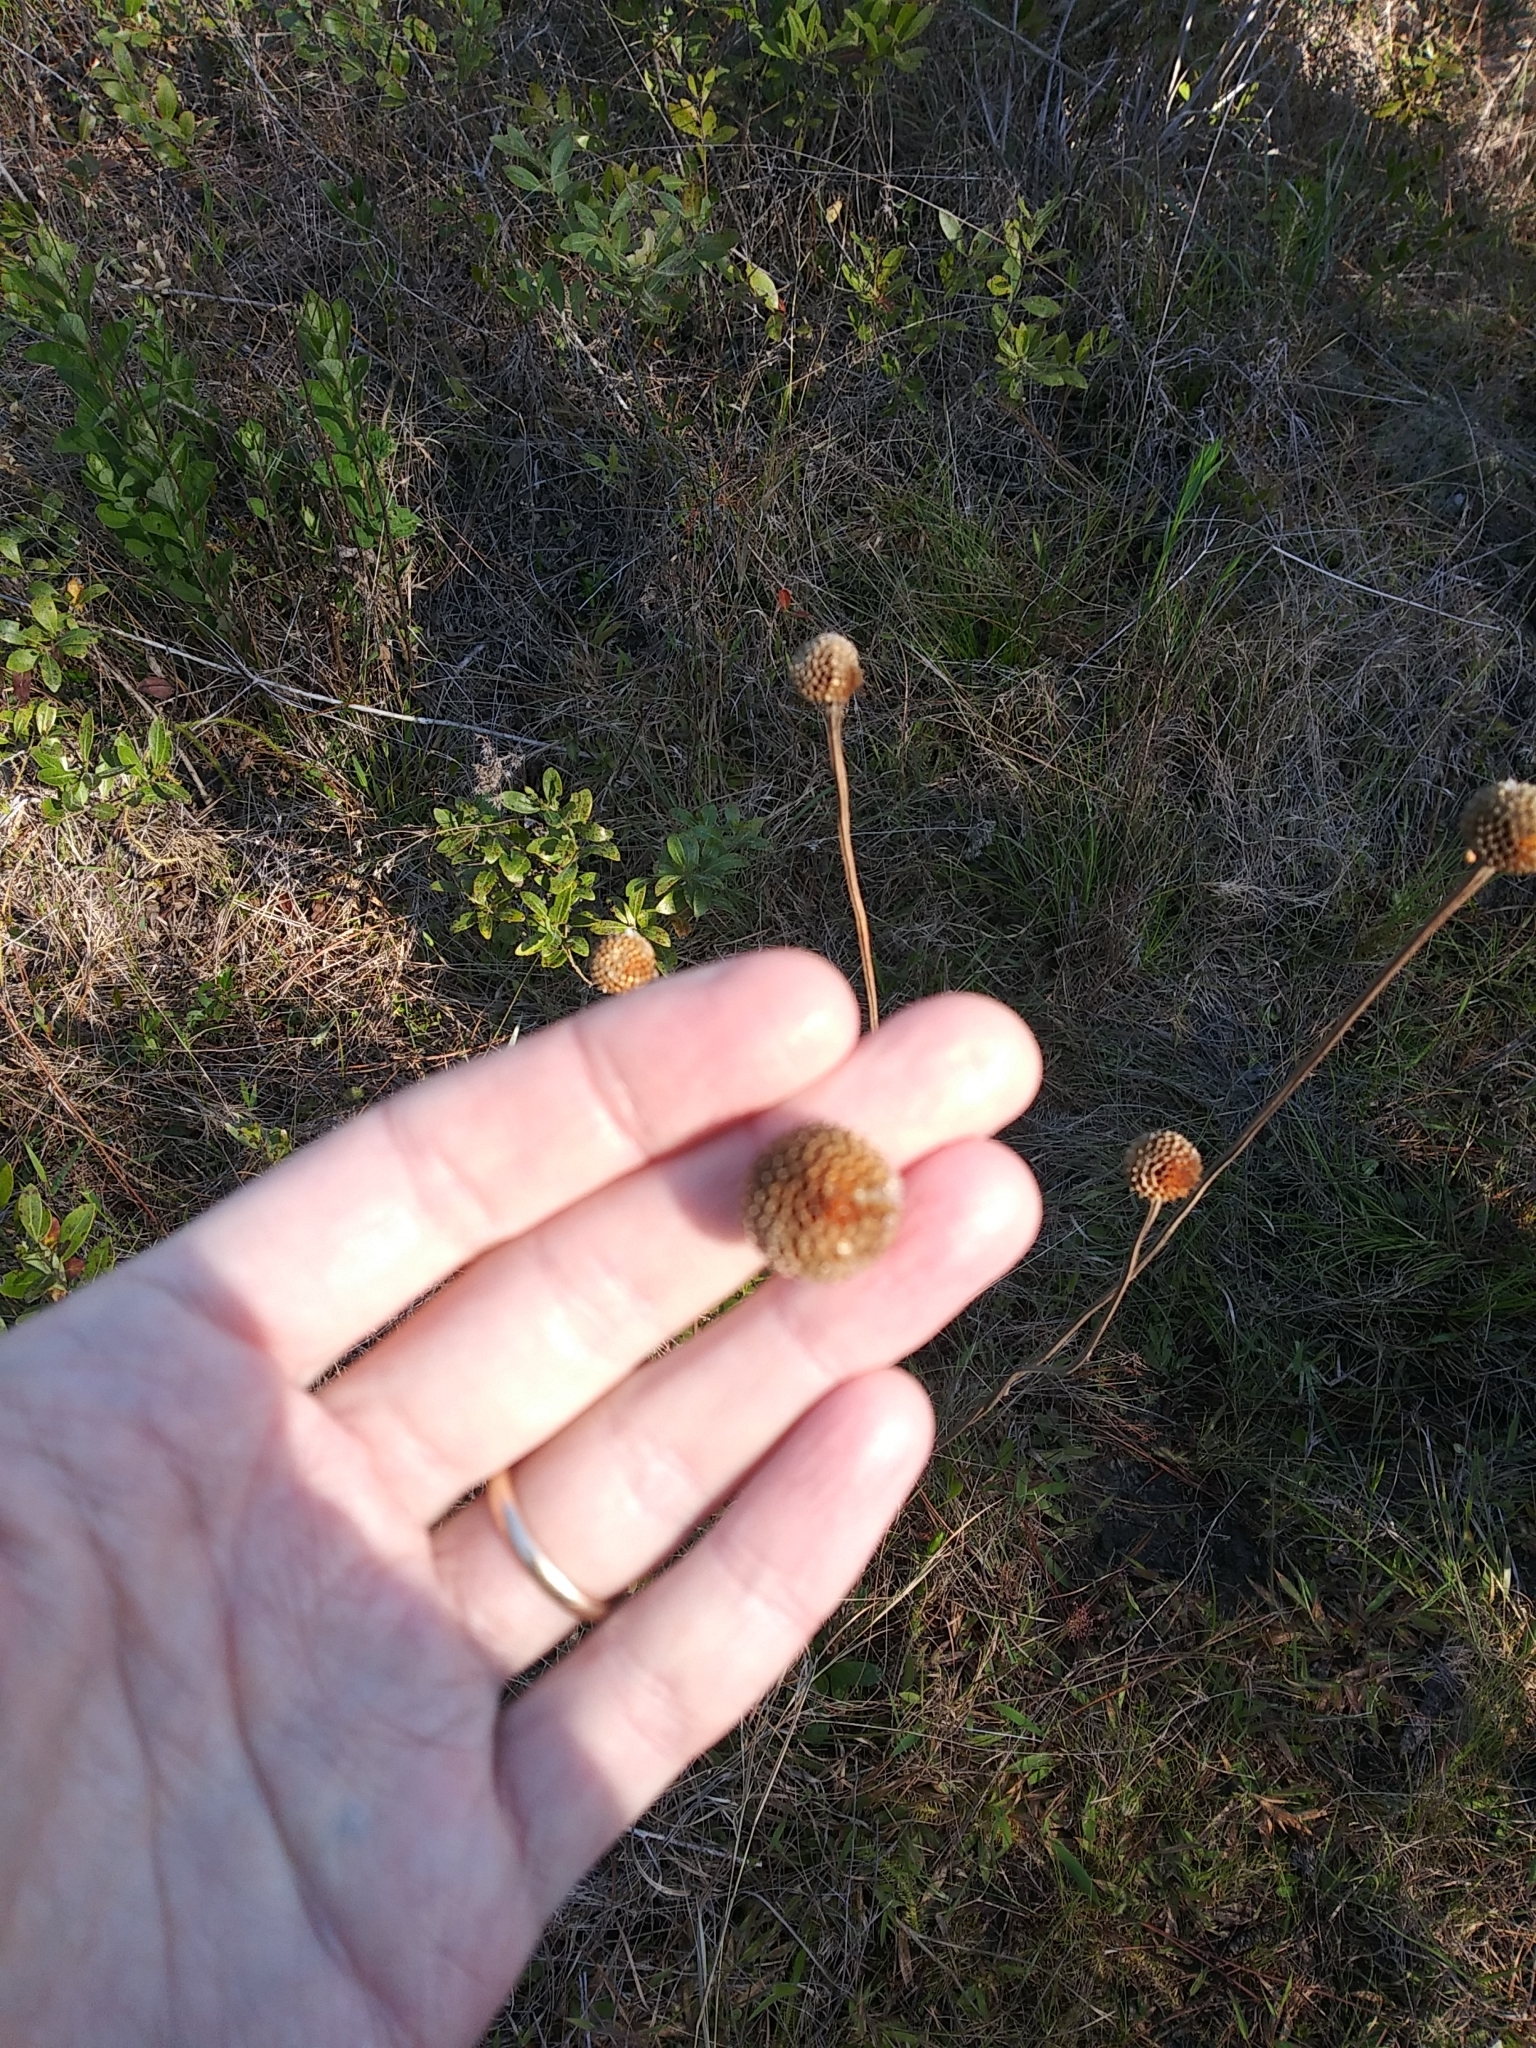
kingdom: Plantae
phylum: Tracheophyta
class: Magnoliopsida
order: Asterales
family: Asteraceae
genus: Balduina
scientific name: Balduina uniflora
